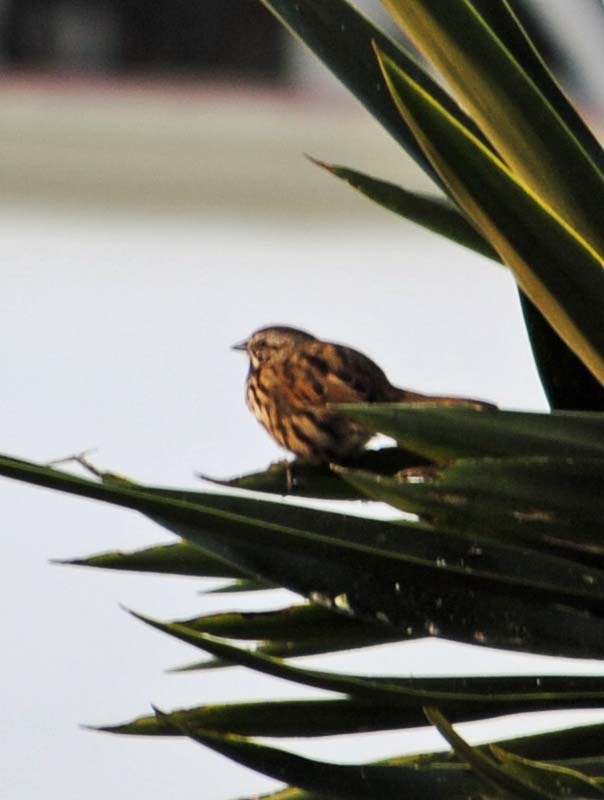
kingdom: Animalia
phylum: Chordata
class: Aves
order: Passeriformes
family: Passerellidae
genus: Melospiza
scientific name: Melospiza melodia
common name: Song sparrow
